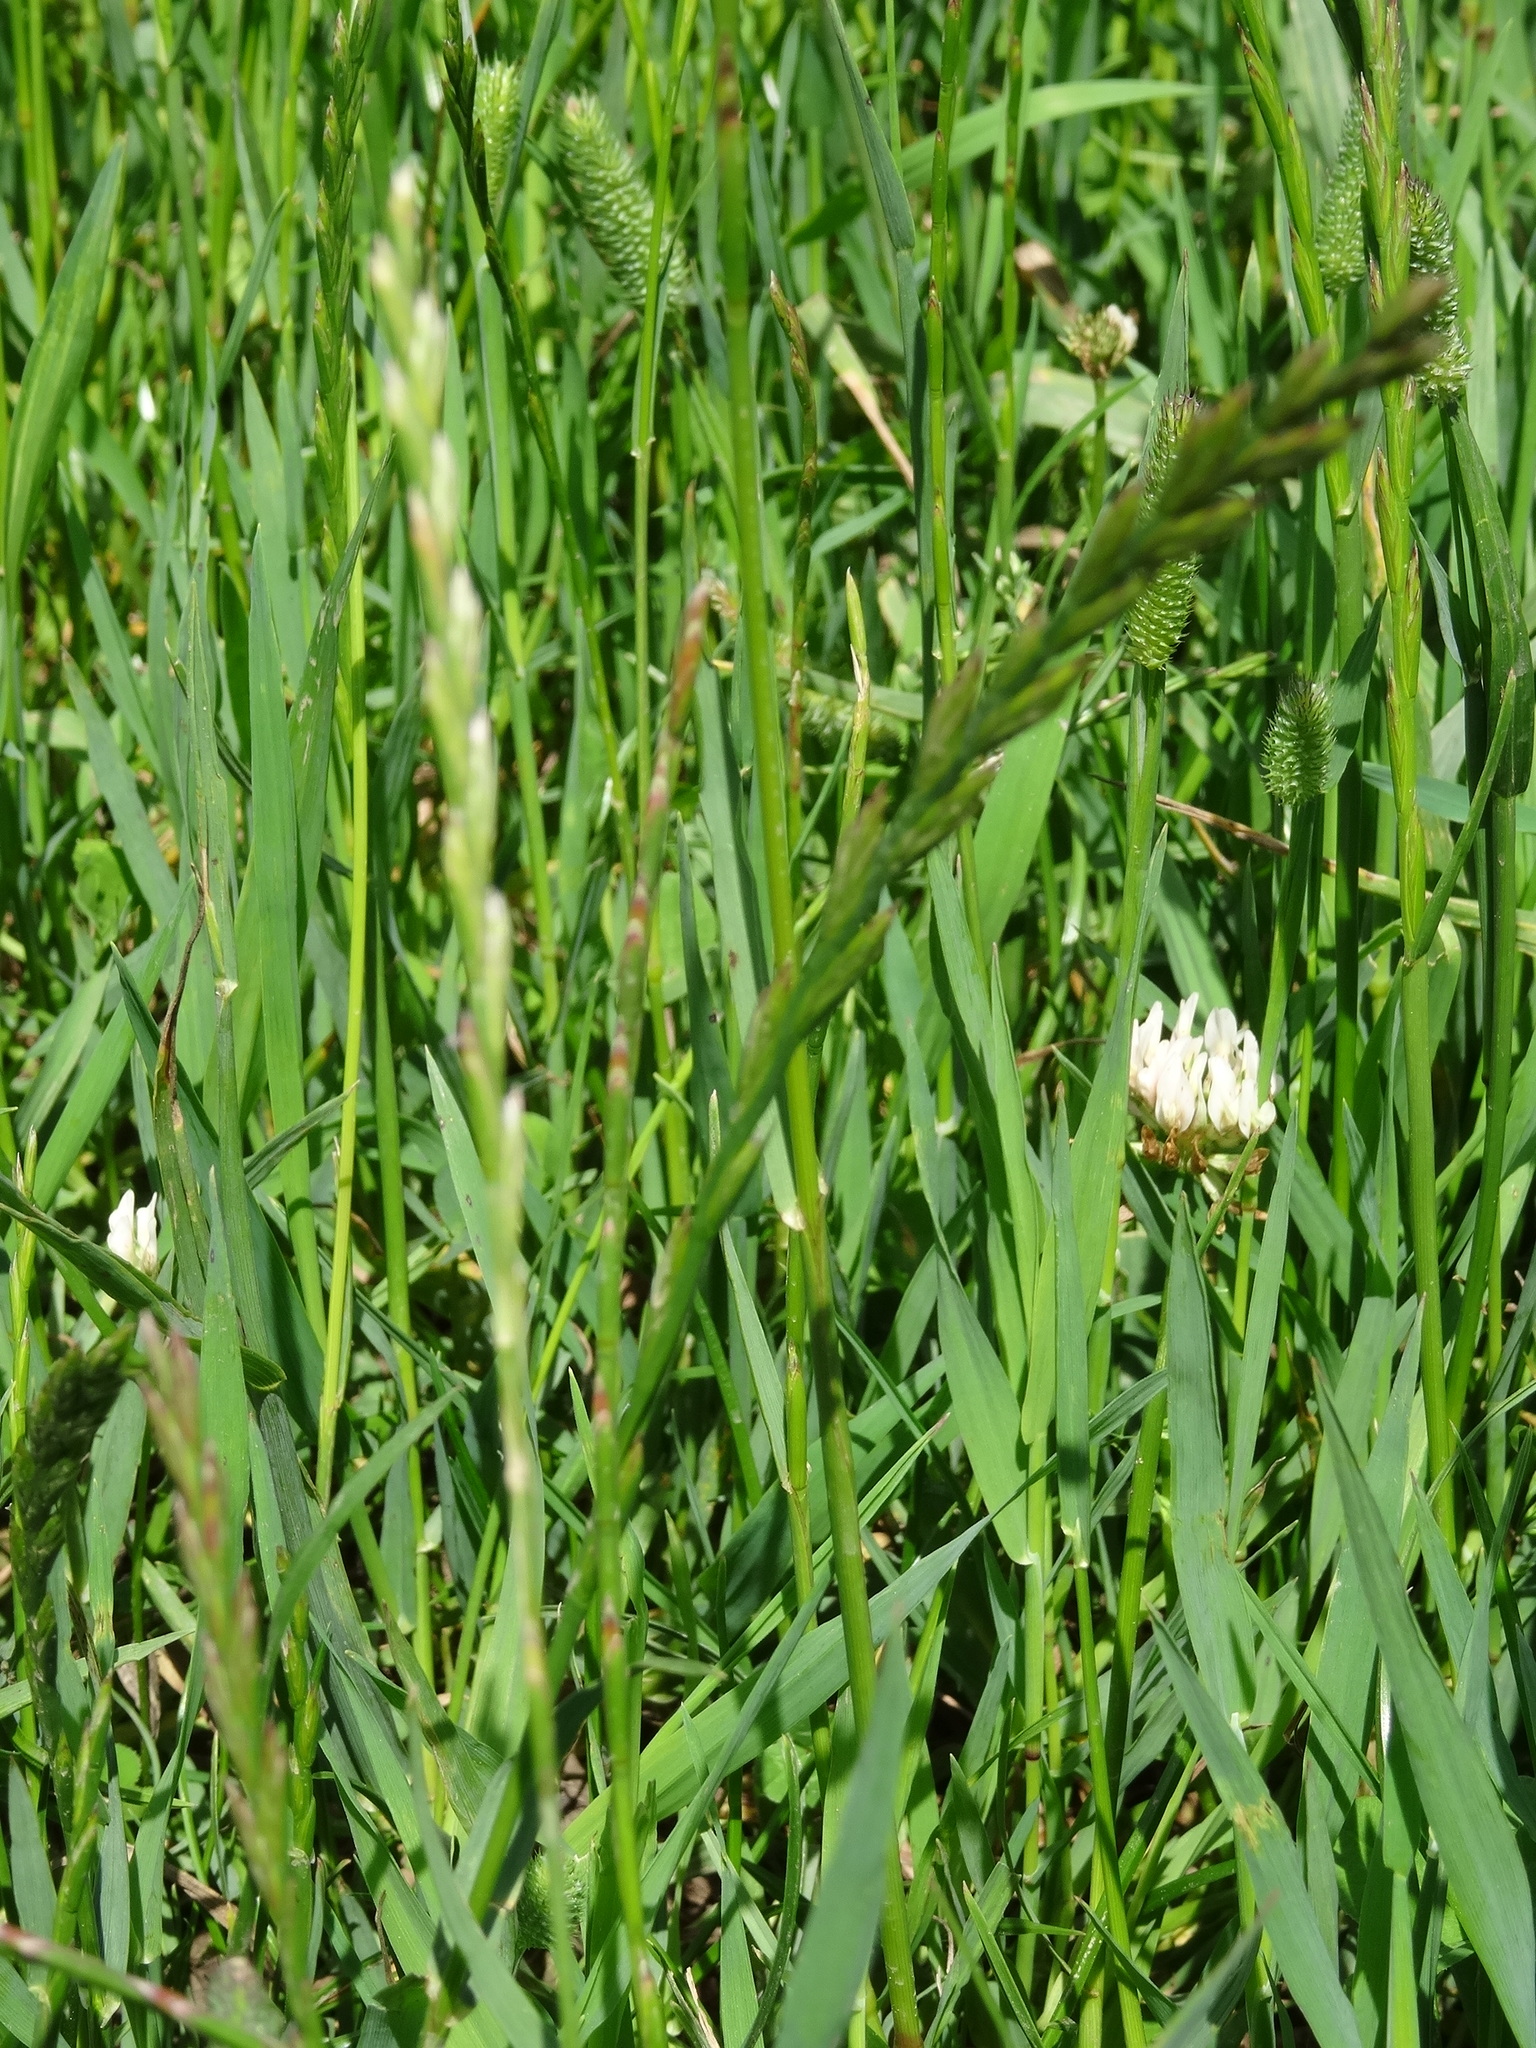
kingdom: Plantae
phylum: Tracheophyta
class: Liliopsida
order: Poales
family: Poaceae
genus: Lolium
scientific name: Lolium perenne
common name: Perennial ryegrass
